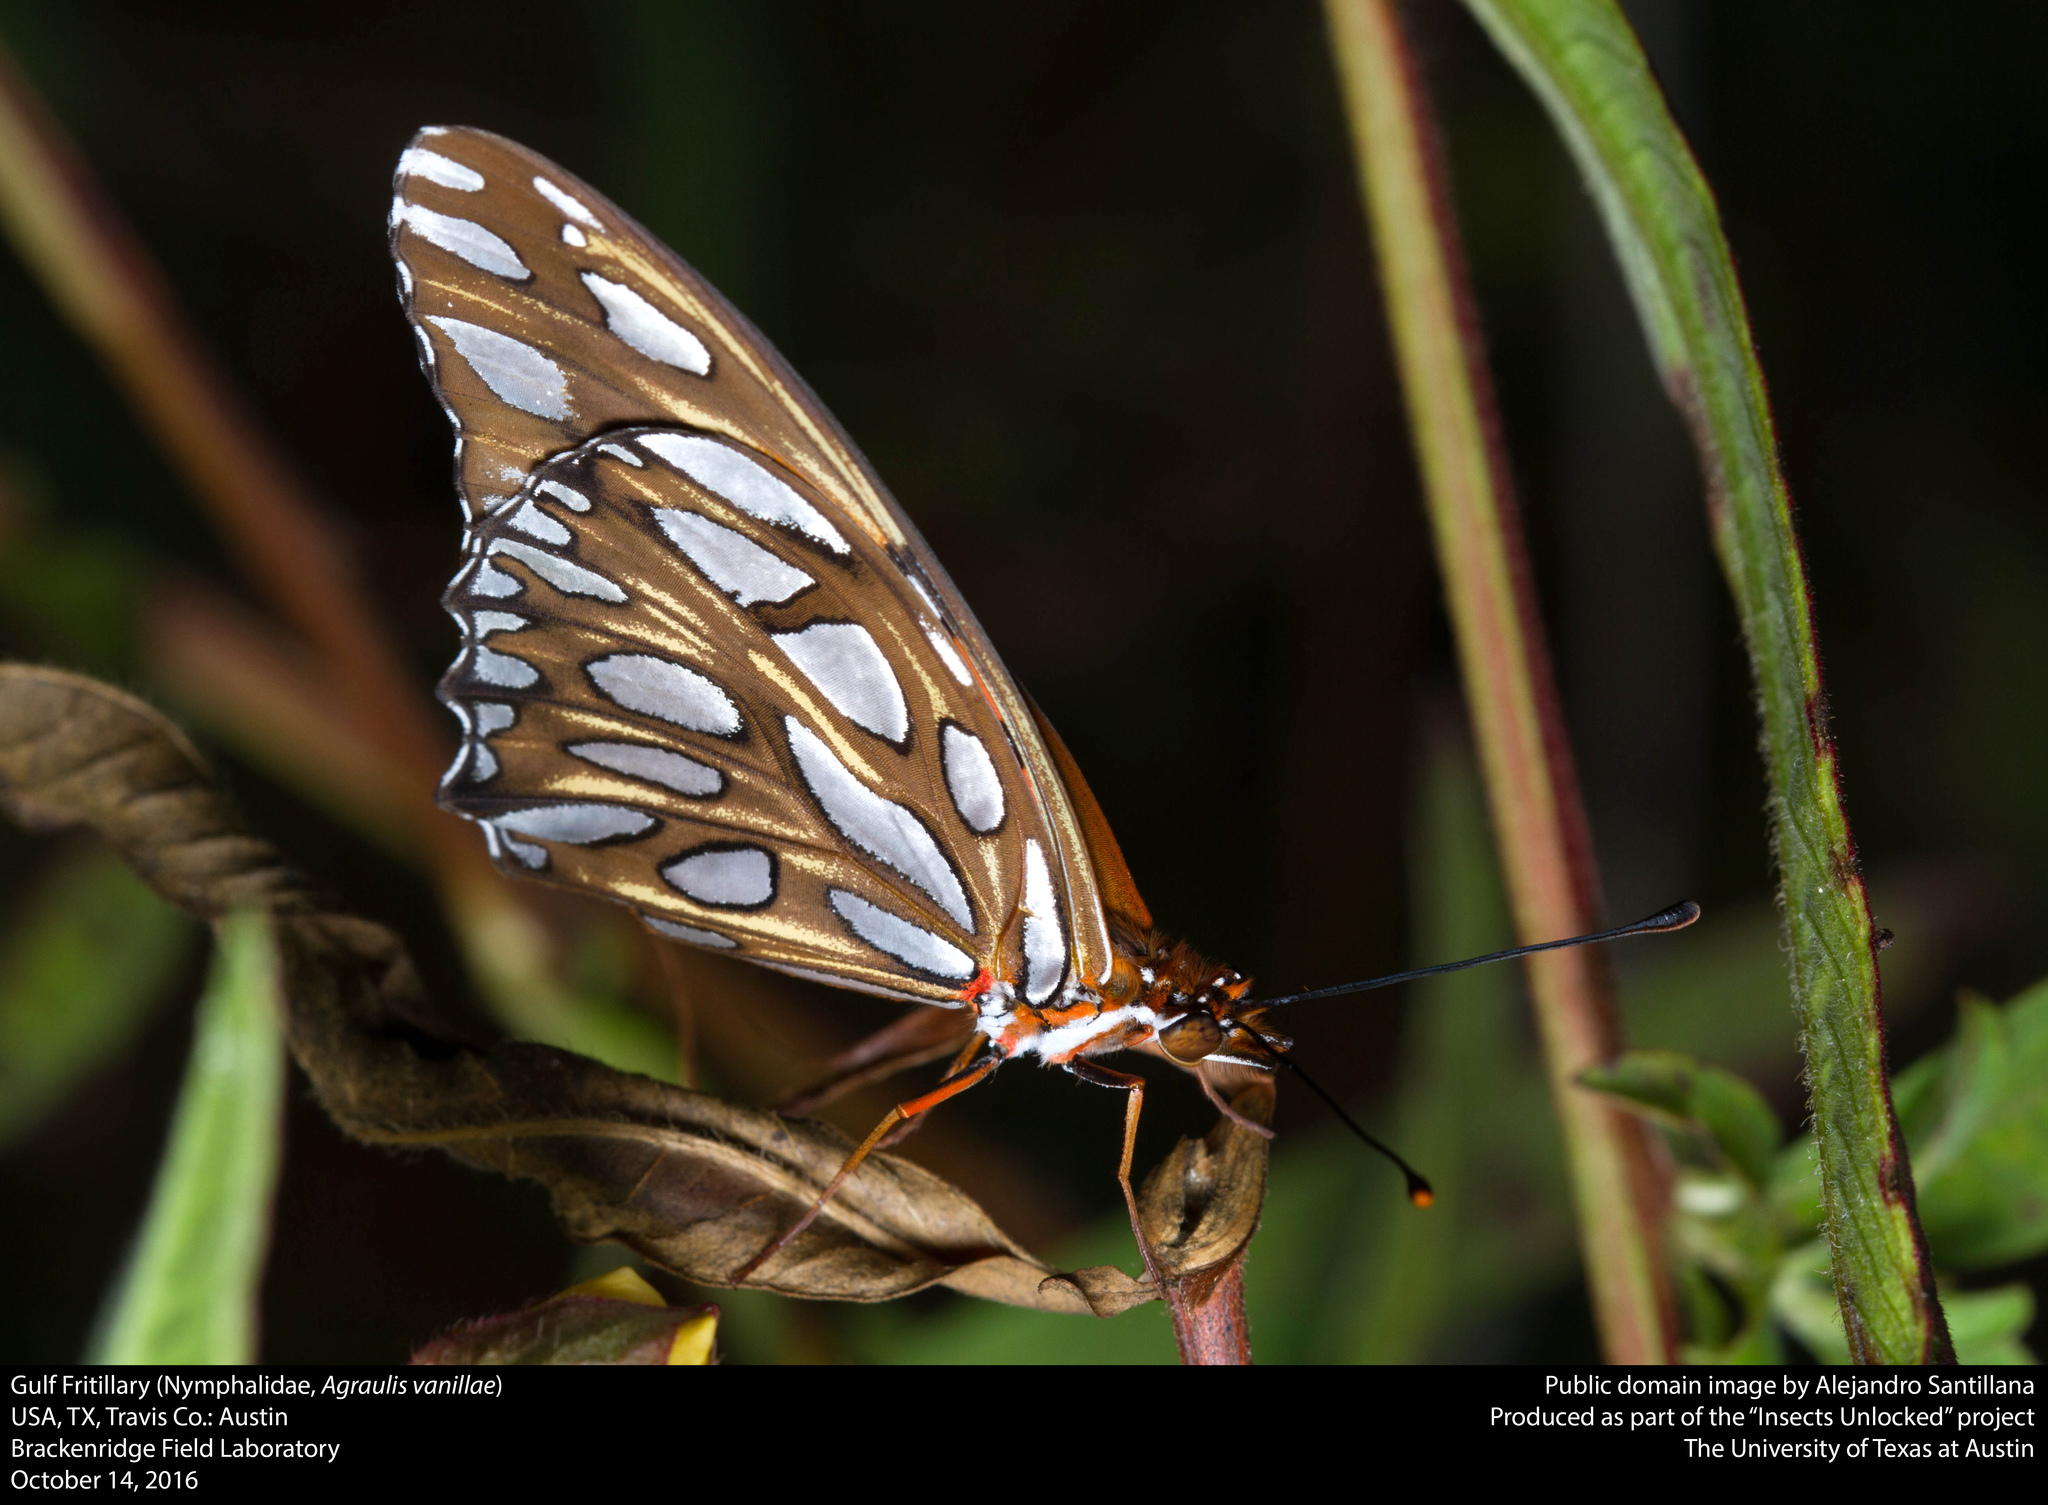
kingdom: Animalia
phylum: Arthropoda
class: Insecta
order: Lepidoptera
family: Nymphalidae
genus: Dione
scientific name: Dione vanillae
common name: Gulf fritillary
